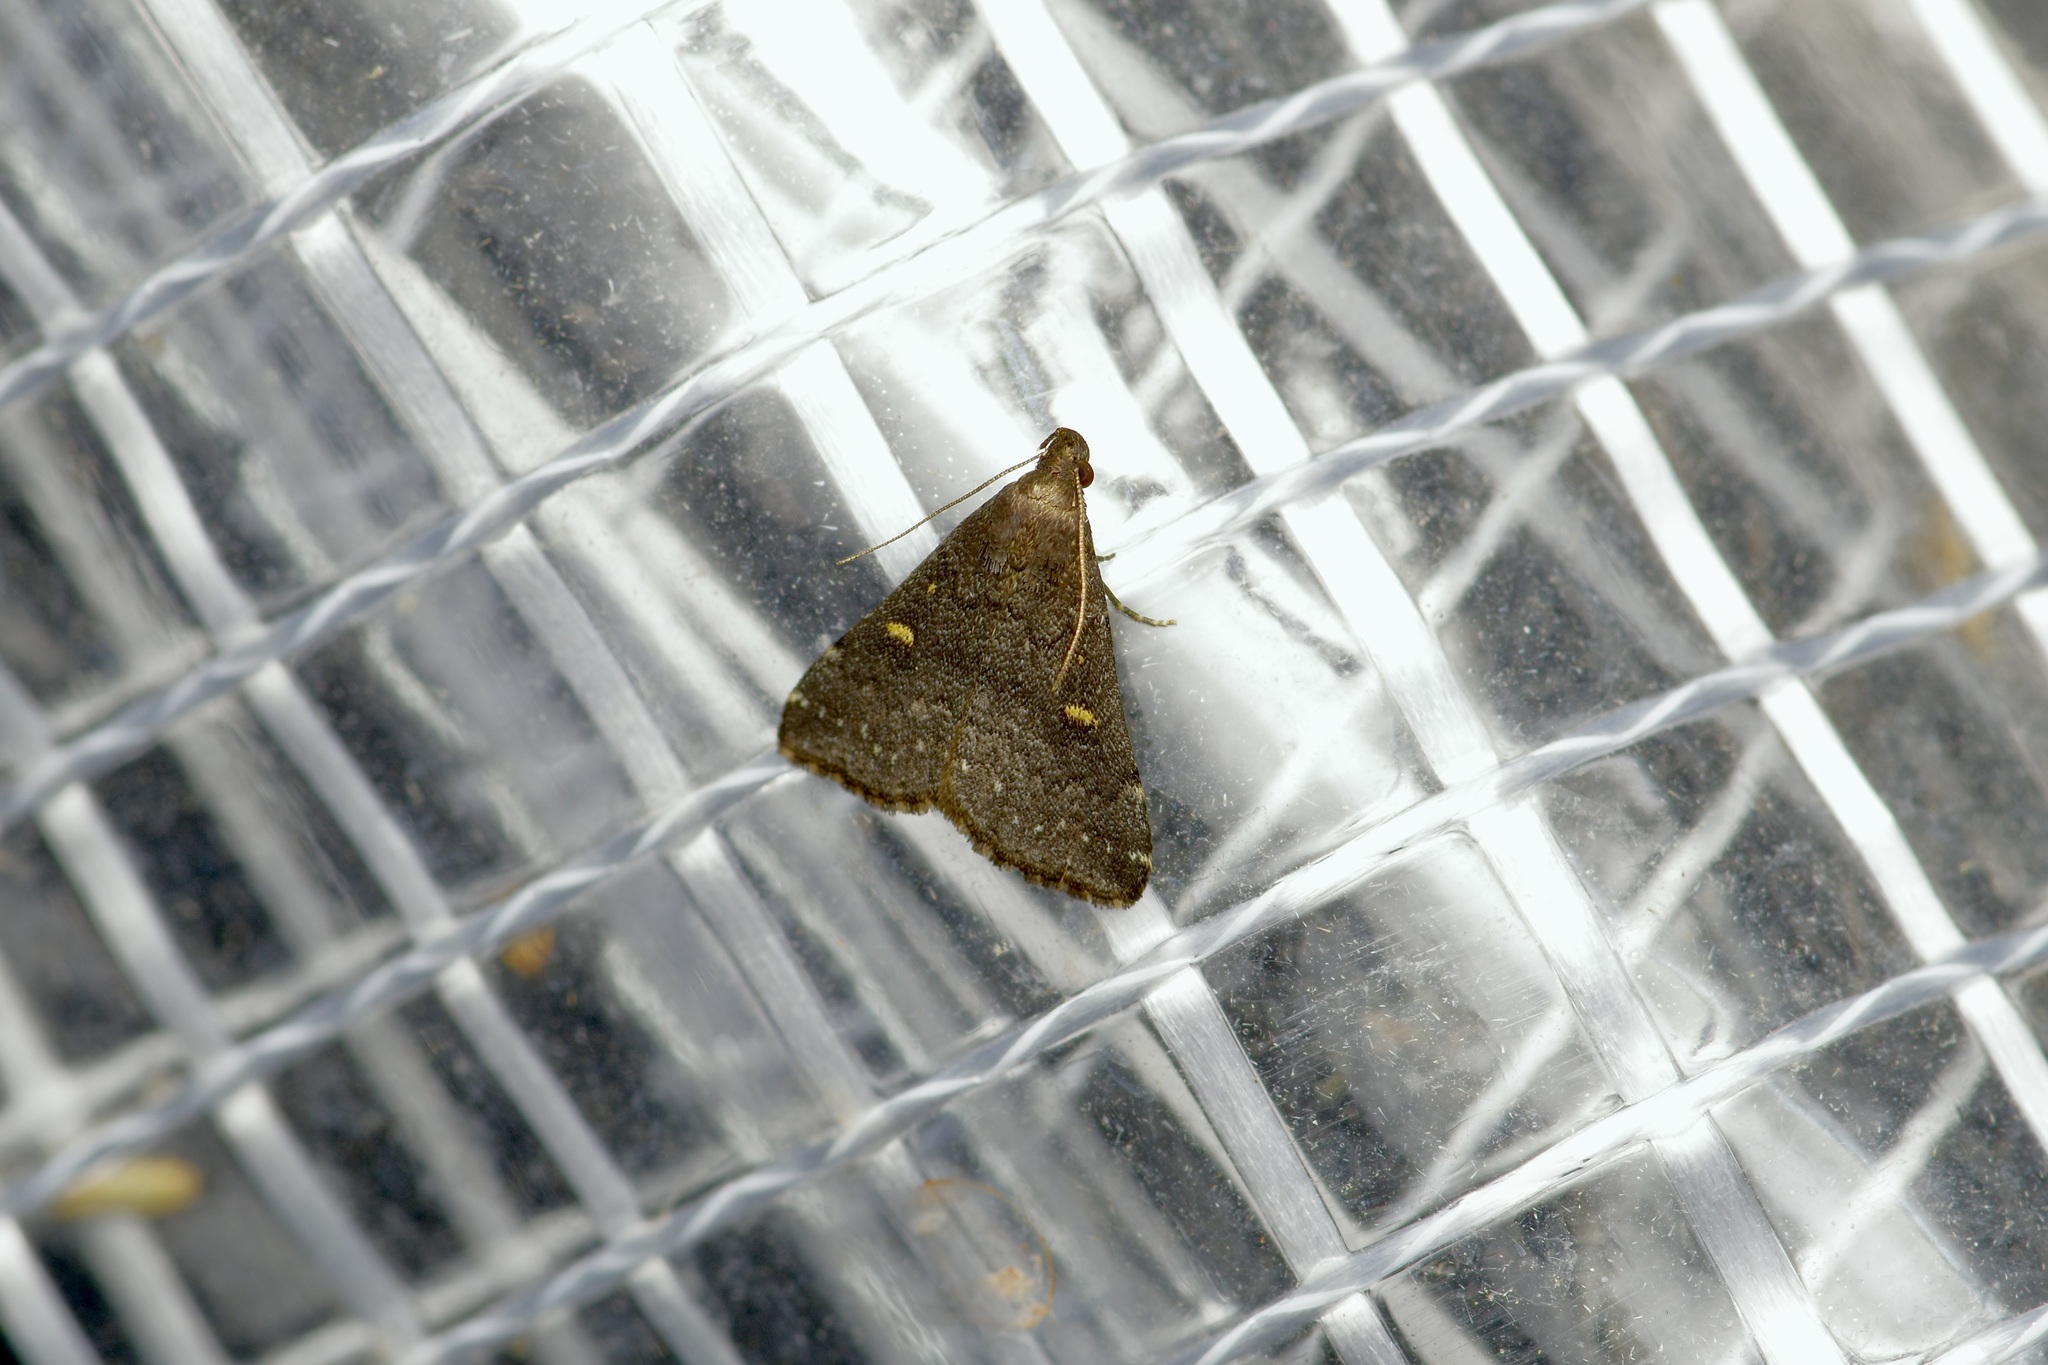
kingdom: Animalia
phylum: Arthropoda
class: Insecta
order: Lepidoptera
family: Erebidae
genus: Tetanolita
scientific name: Tetanolita mynesalis
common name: Smoky tetanolita moth
